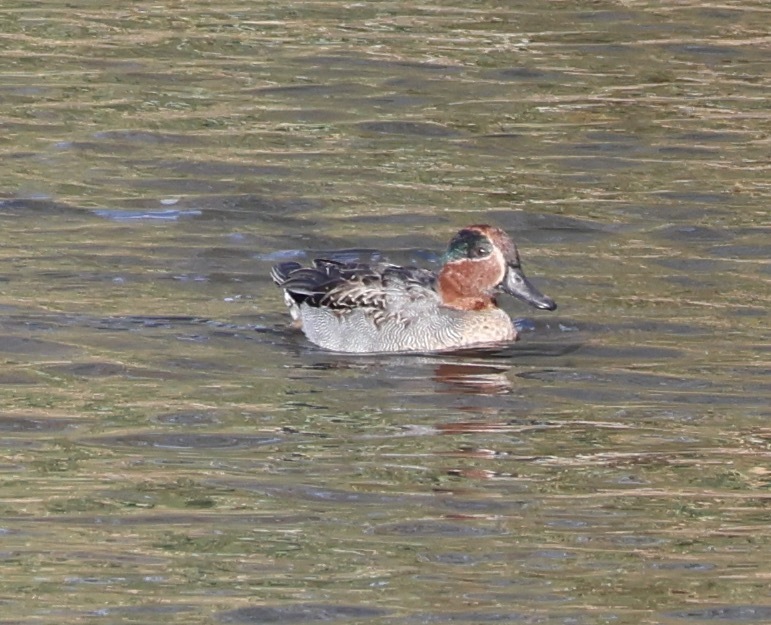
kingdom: Animalia
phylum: Chordata
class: Aves
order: Anseriformes
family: Anatidae
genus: Anas
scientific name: Anas crecca
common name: Eurasian teal
